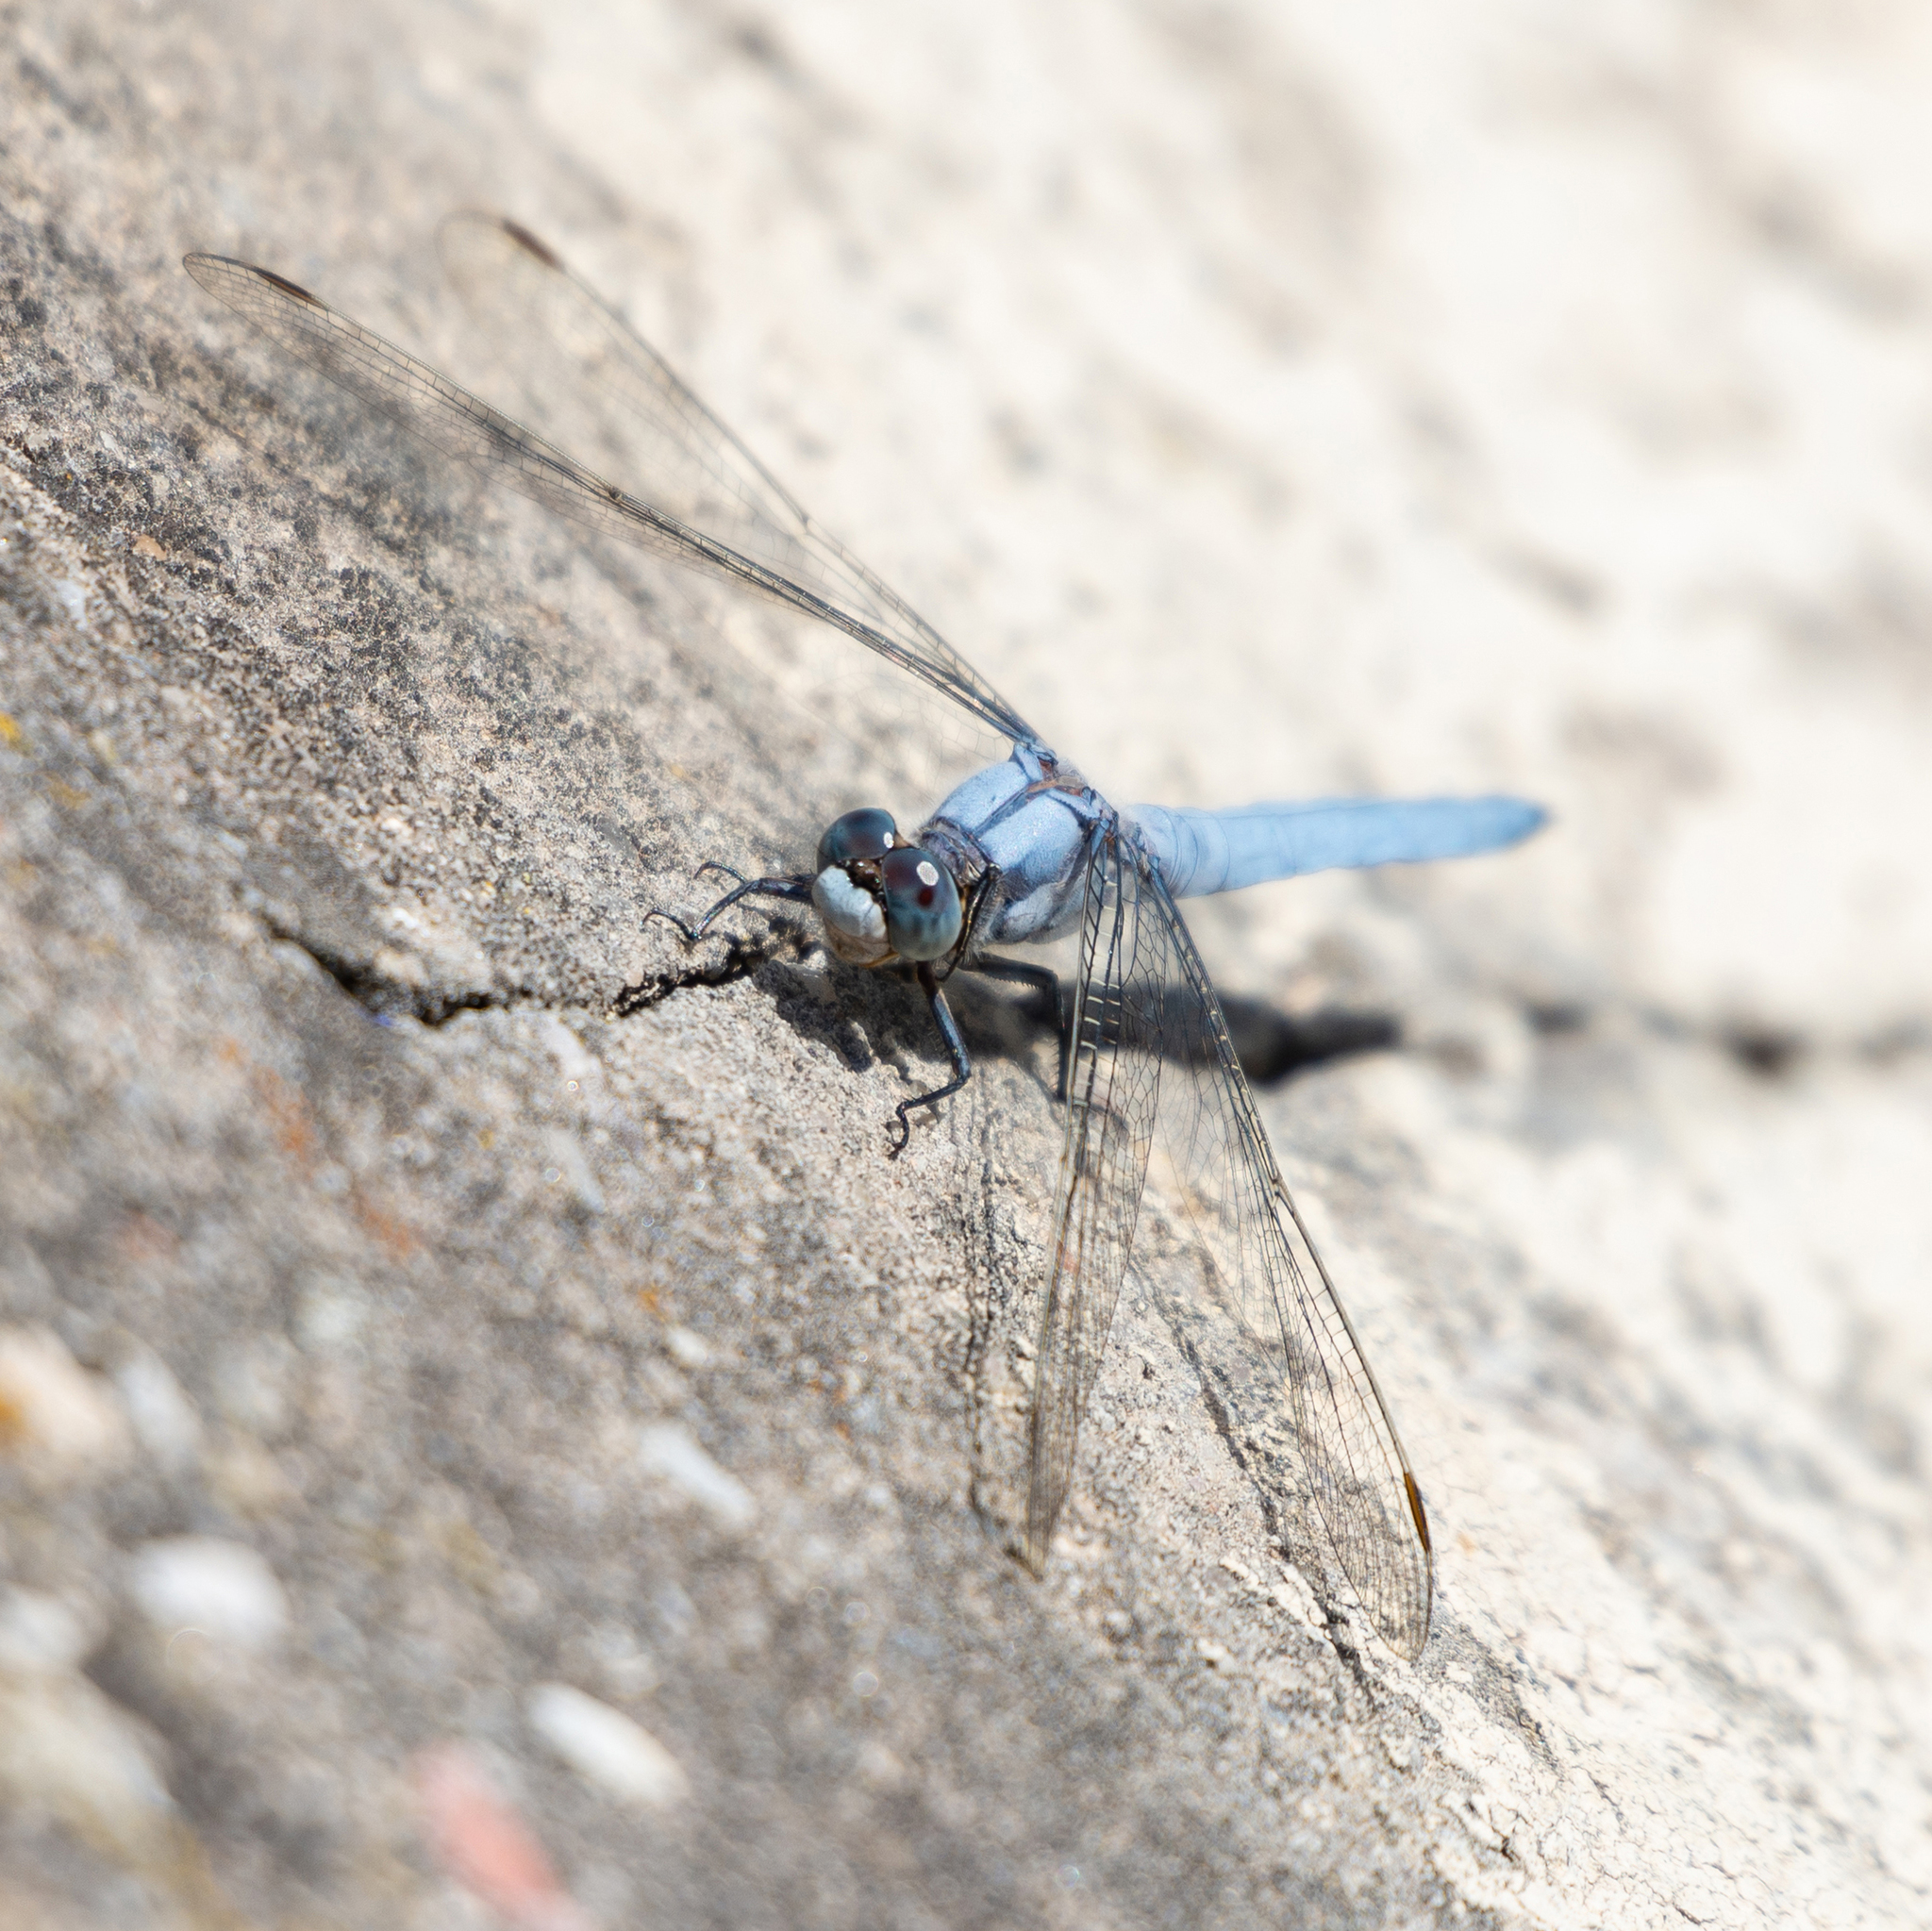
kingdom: Animalia
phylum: Arthropoda
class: Insecta
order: Odonata
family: Libellulidae
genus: Orthetrum
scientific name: Orthetrum brunneum
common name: Southern skimmer
